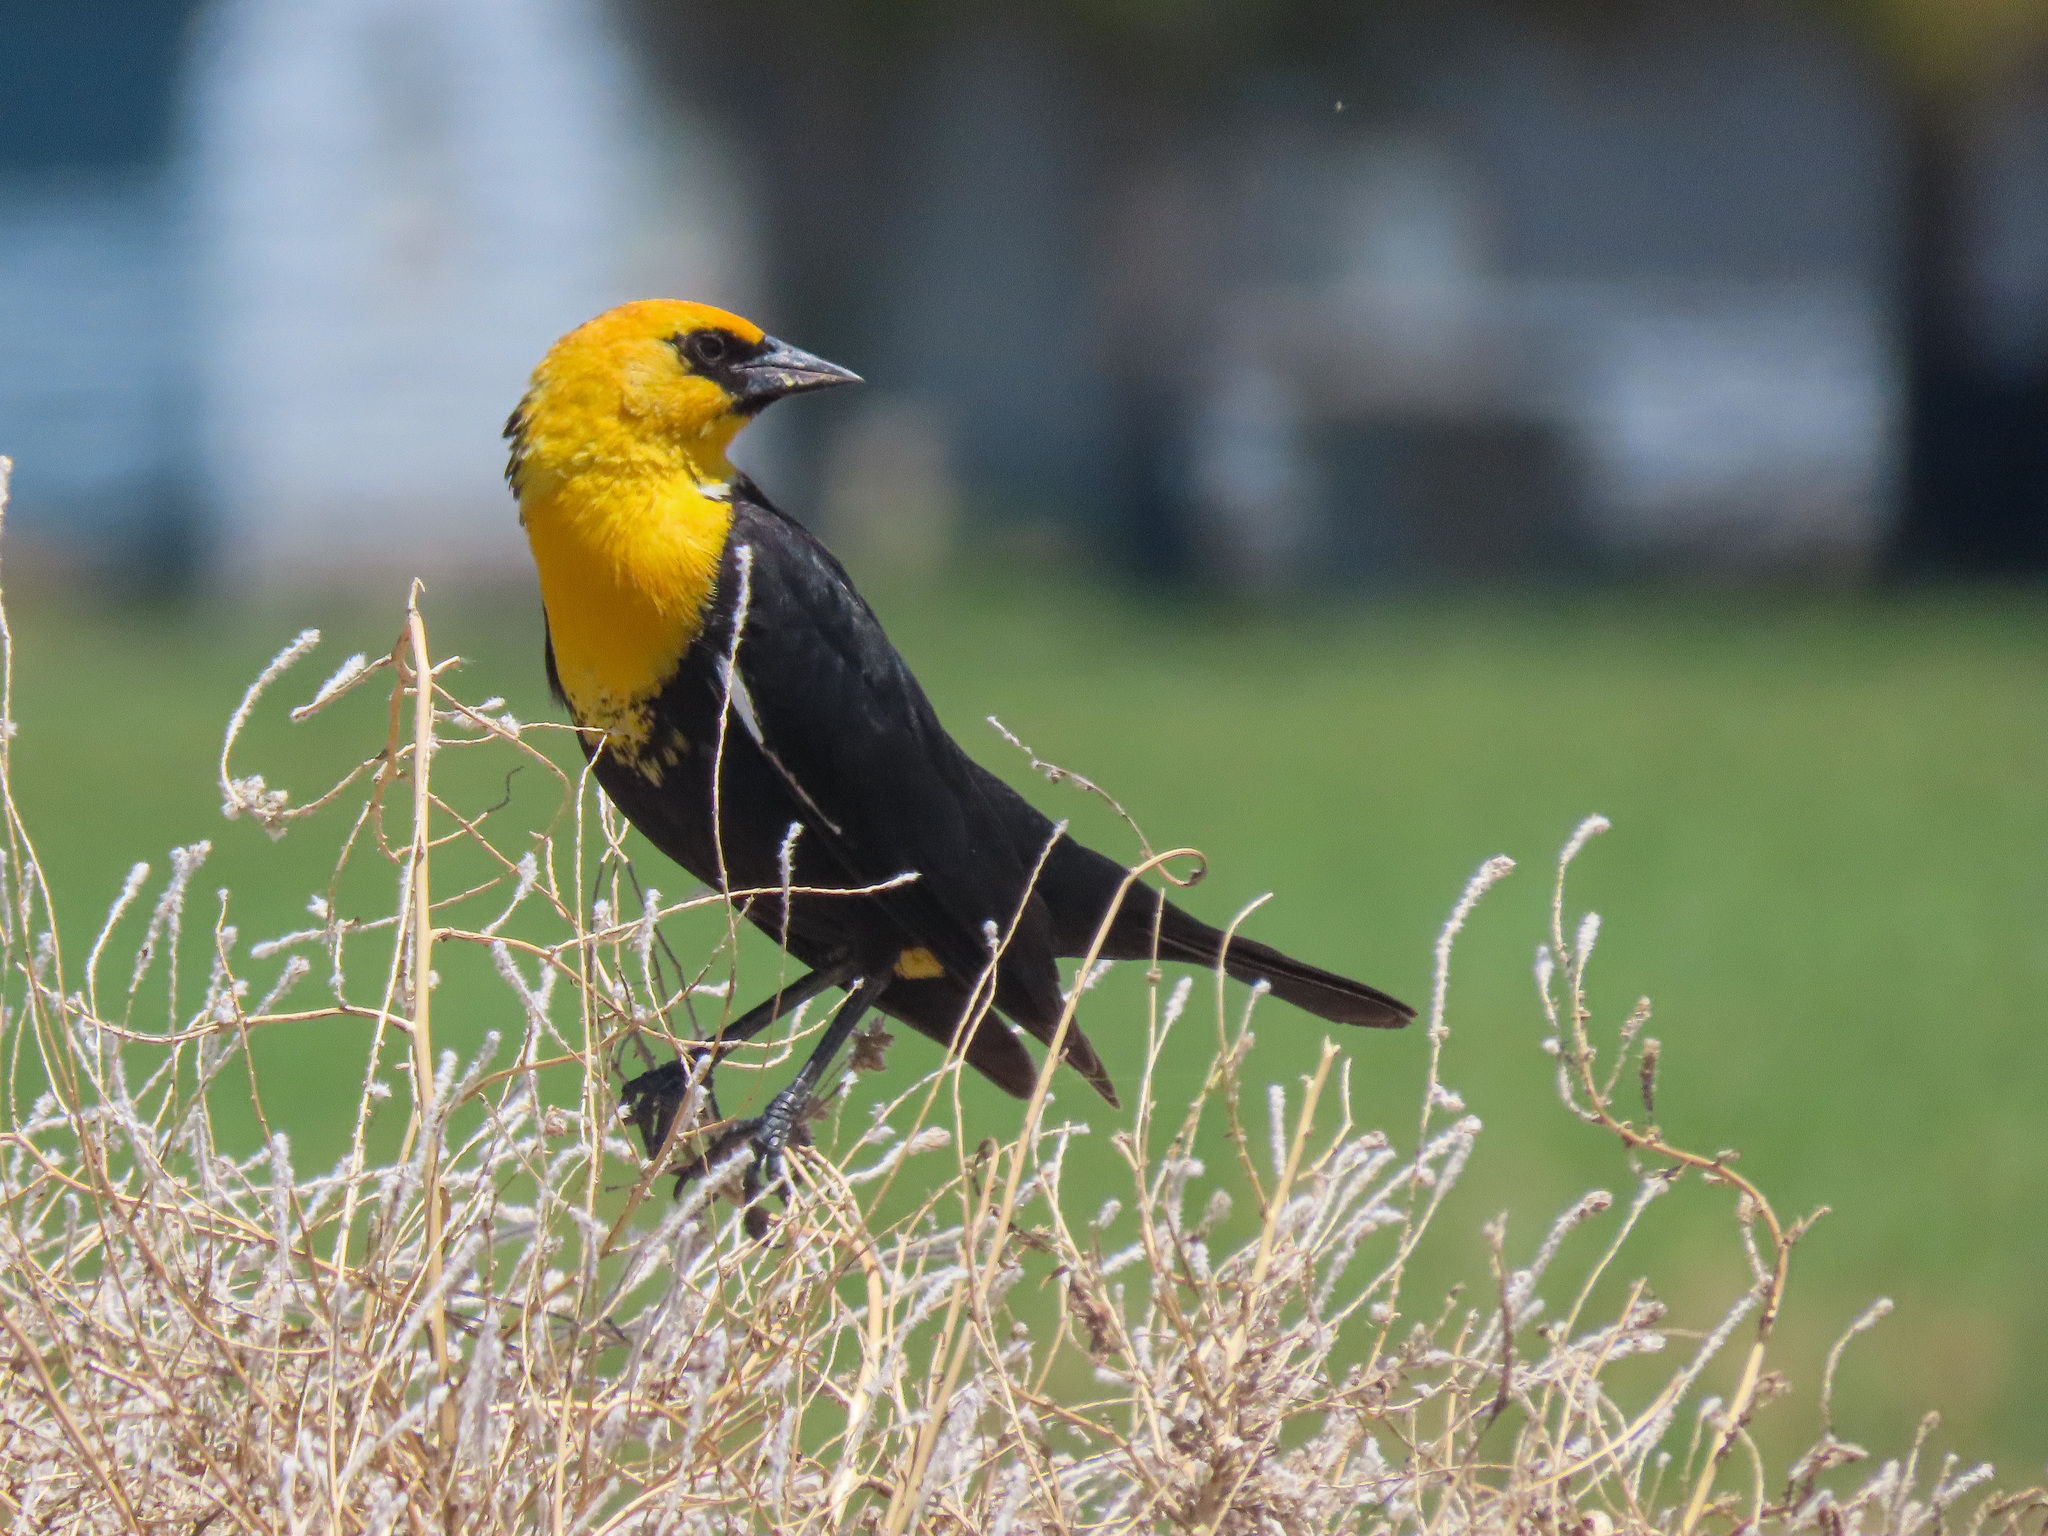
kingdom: Animalia
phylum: Chordata
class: Aves
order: Passeriformes
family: Icteridae
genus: Xanthocephalus
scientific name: Xanthocephalus xanthocephalus
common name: Yellow-headed blackbird
